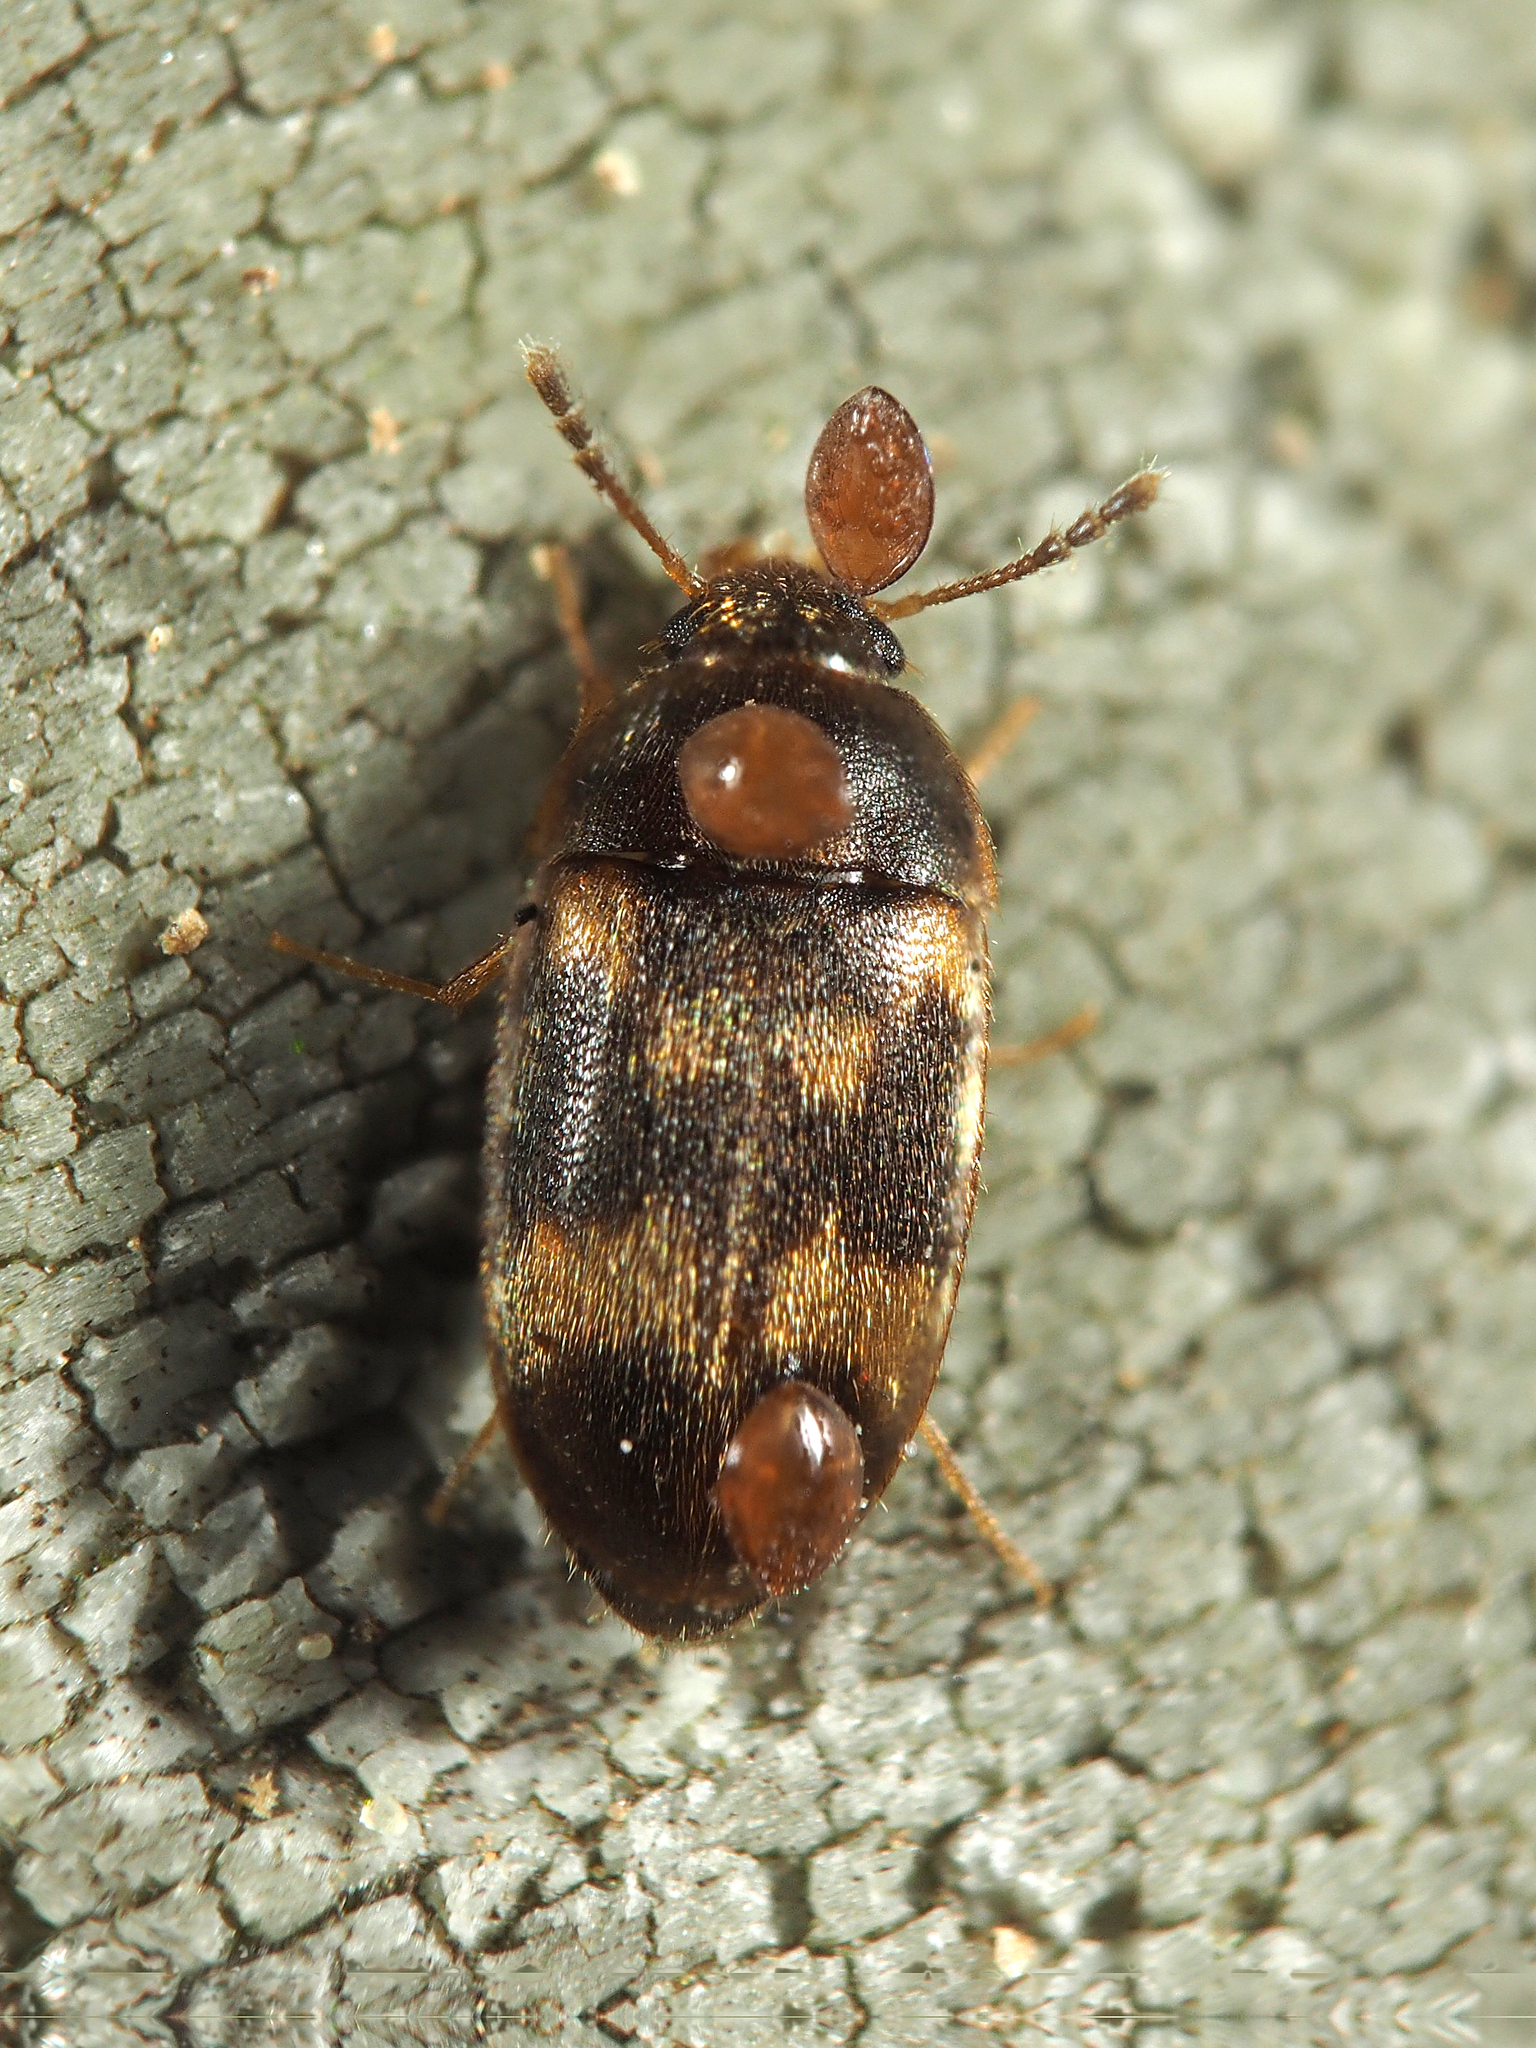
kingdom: Animalia
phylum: Arthropoda
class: Insecta
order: Coleoptera
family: Mycetophagidae
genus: Litargus
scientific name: Litargus balteatus
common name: Stored grain hairy fungus beetle
